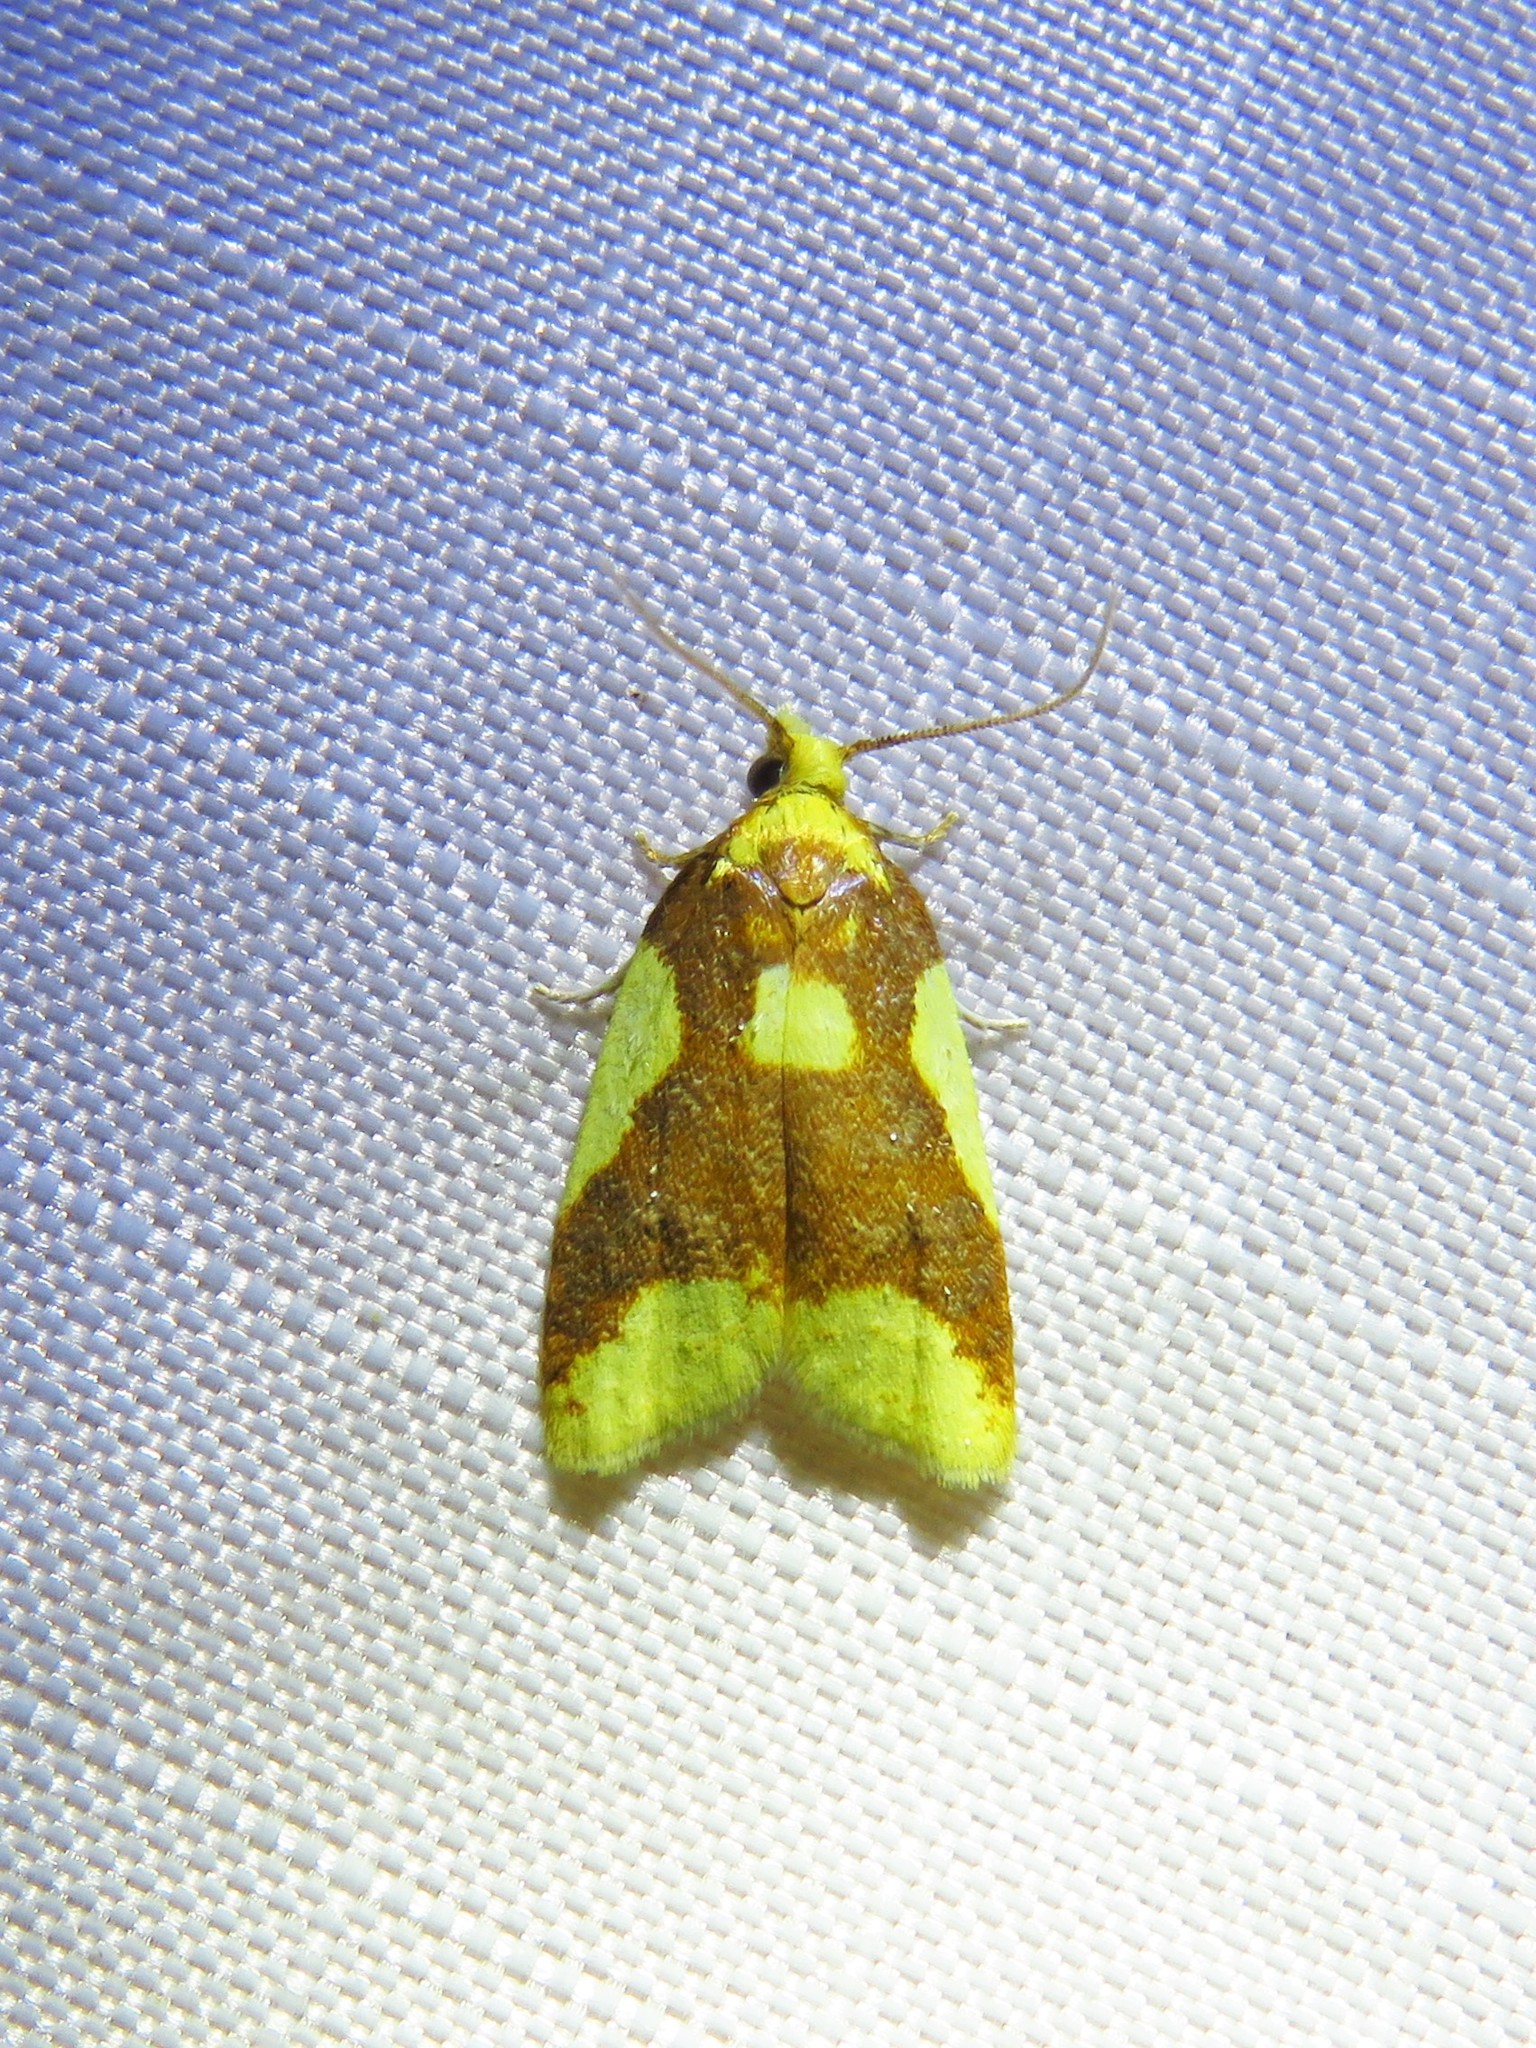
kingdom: Animalia
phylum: Arthropoda
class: Insecta
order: Lepidoptera
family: Tortricidae
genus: Sparganothis
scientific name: Sparganothis pulcherrimana
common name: Beautiful sparganothis
